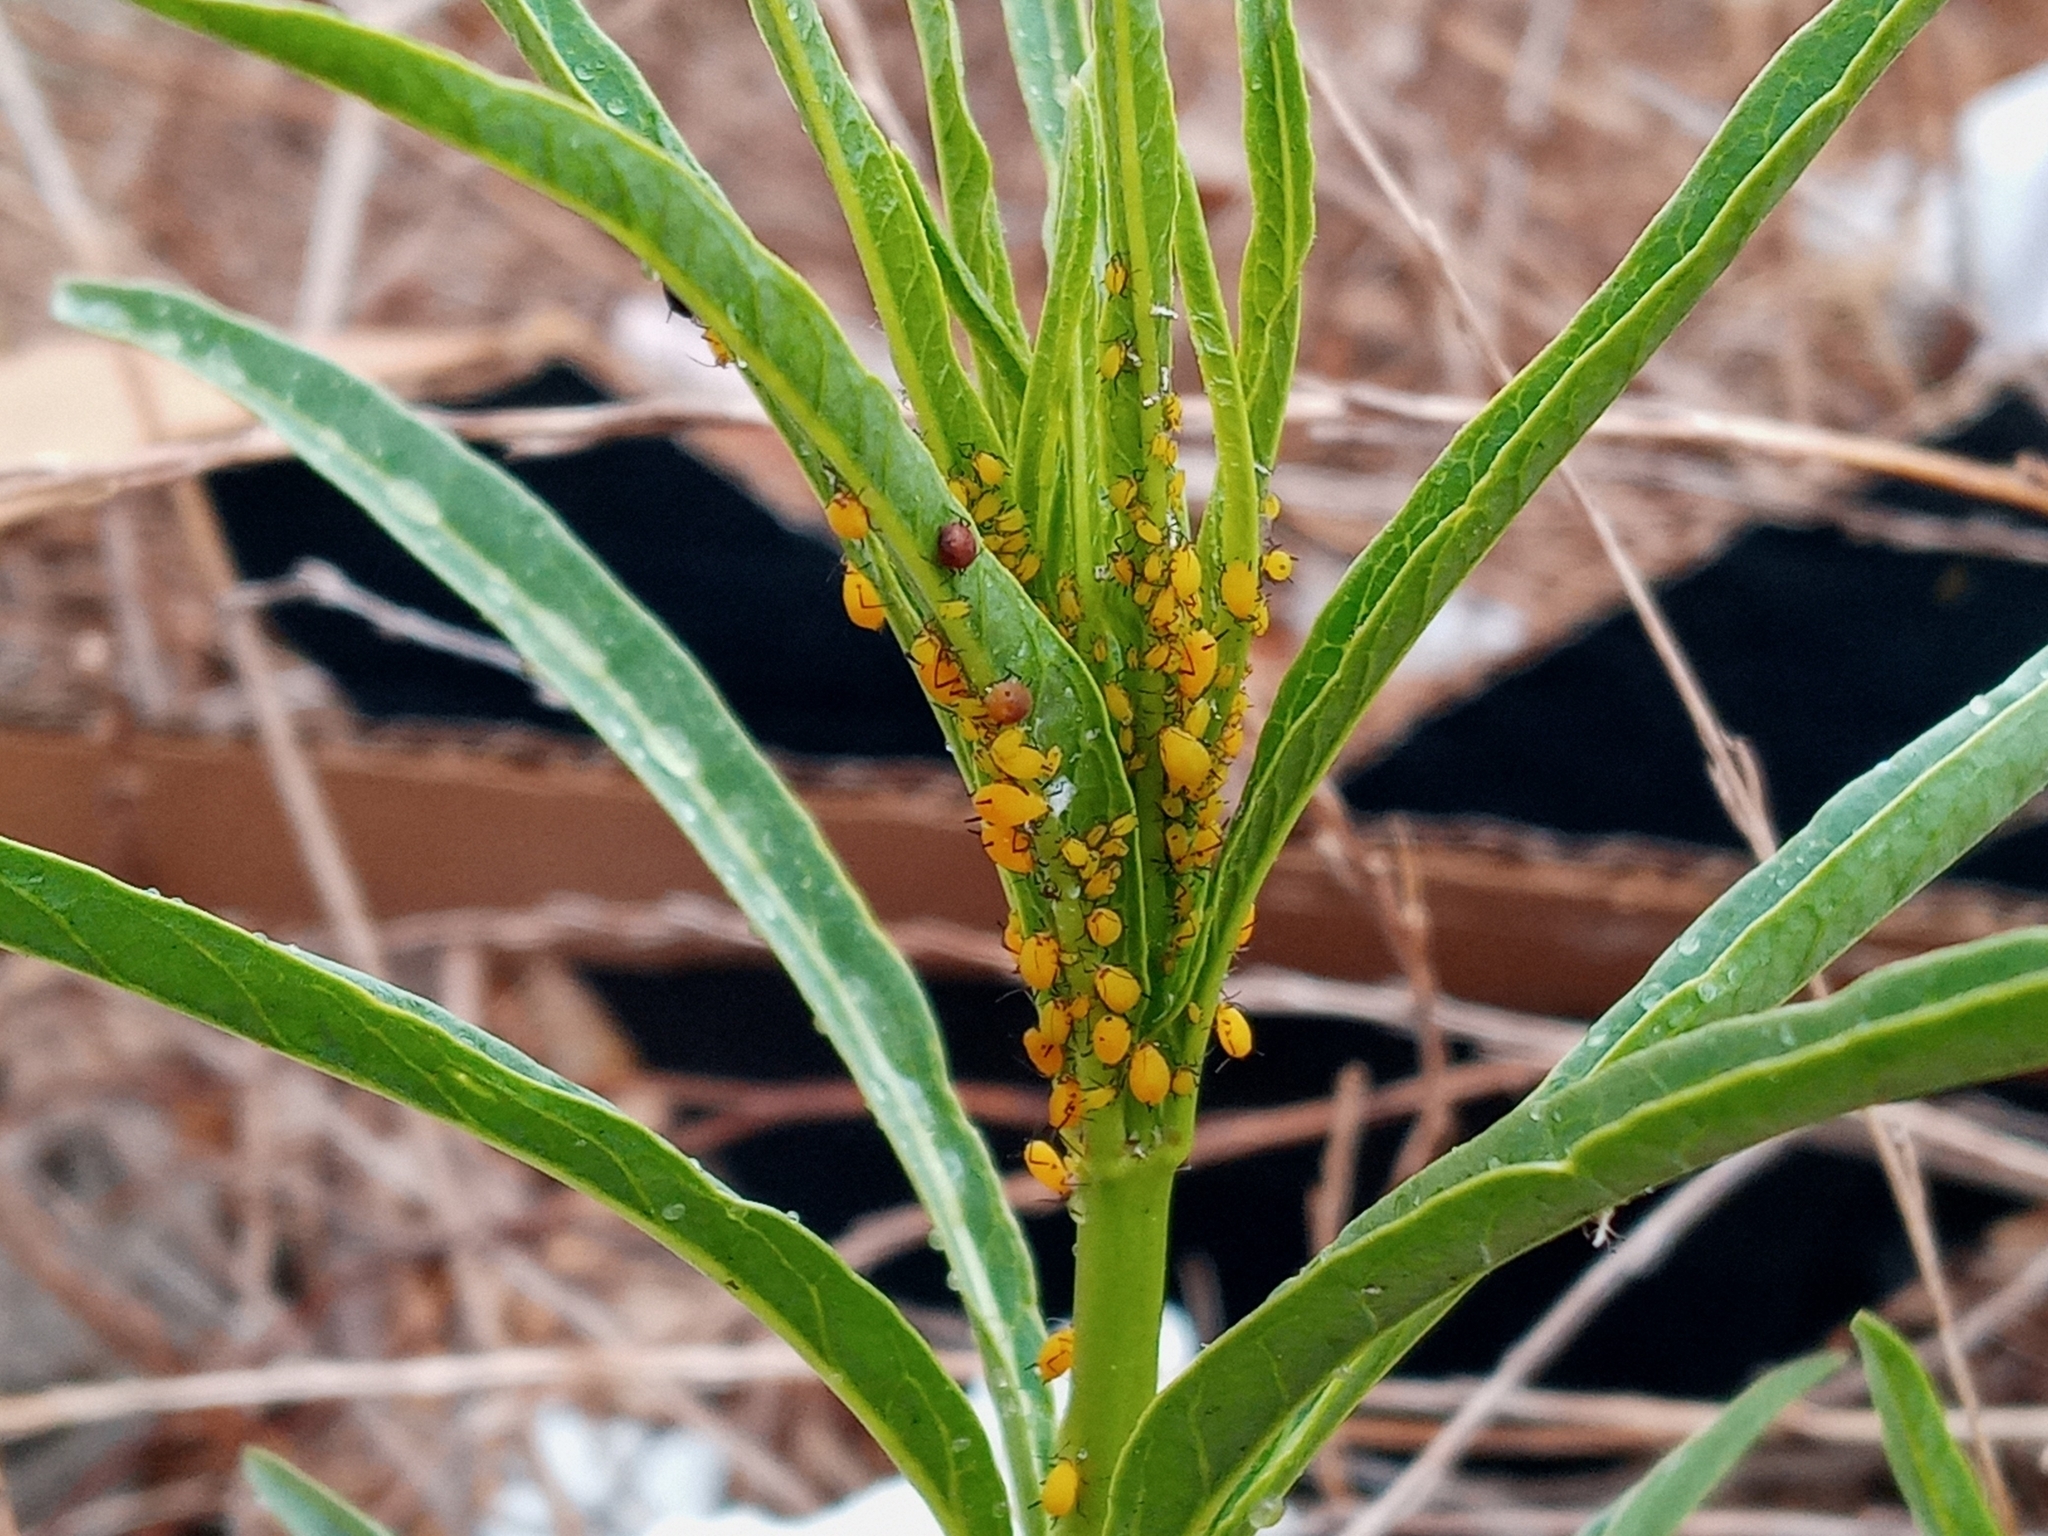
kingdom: Animalia
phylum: Arthropoda
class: Insecta
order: Hemiptera
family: Aphididae
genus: Aphis
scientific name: Aphis nerii
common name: Oleander aphid
